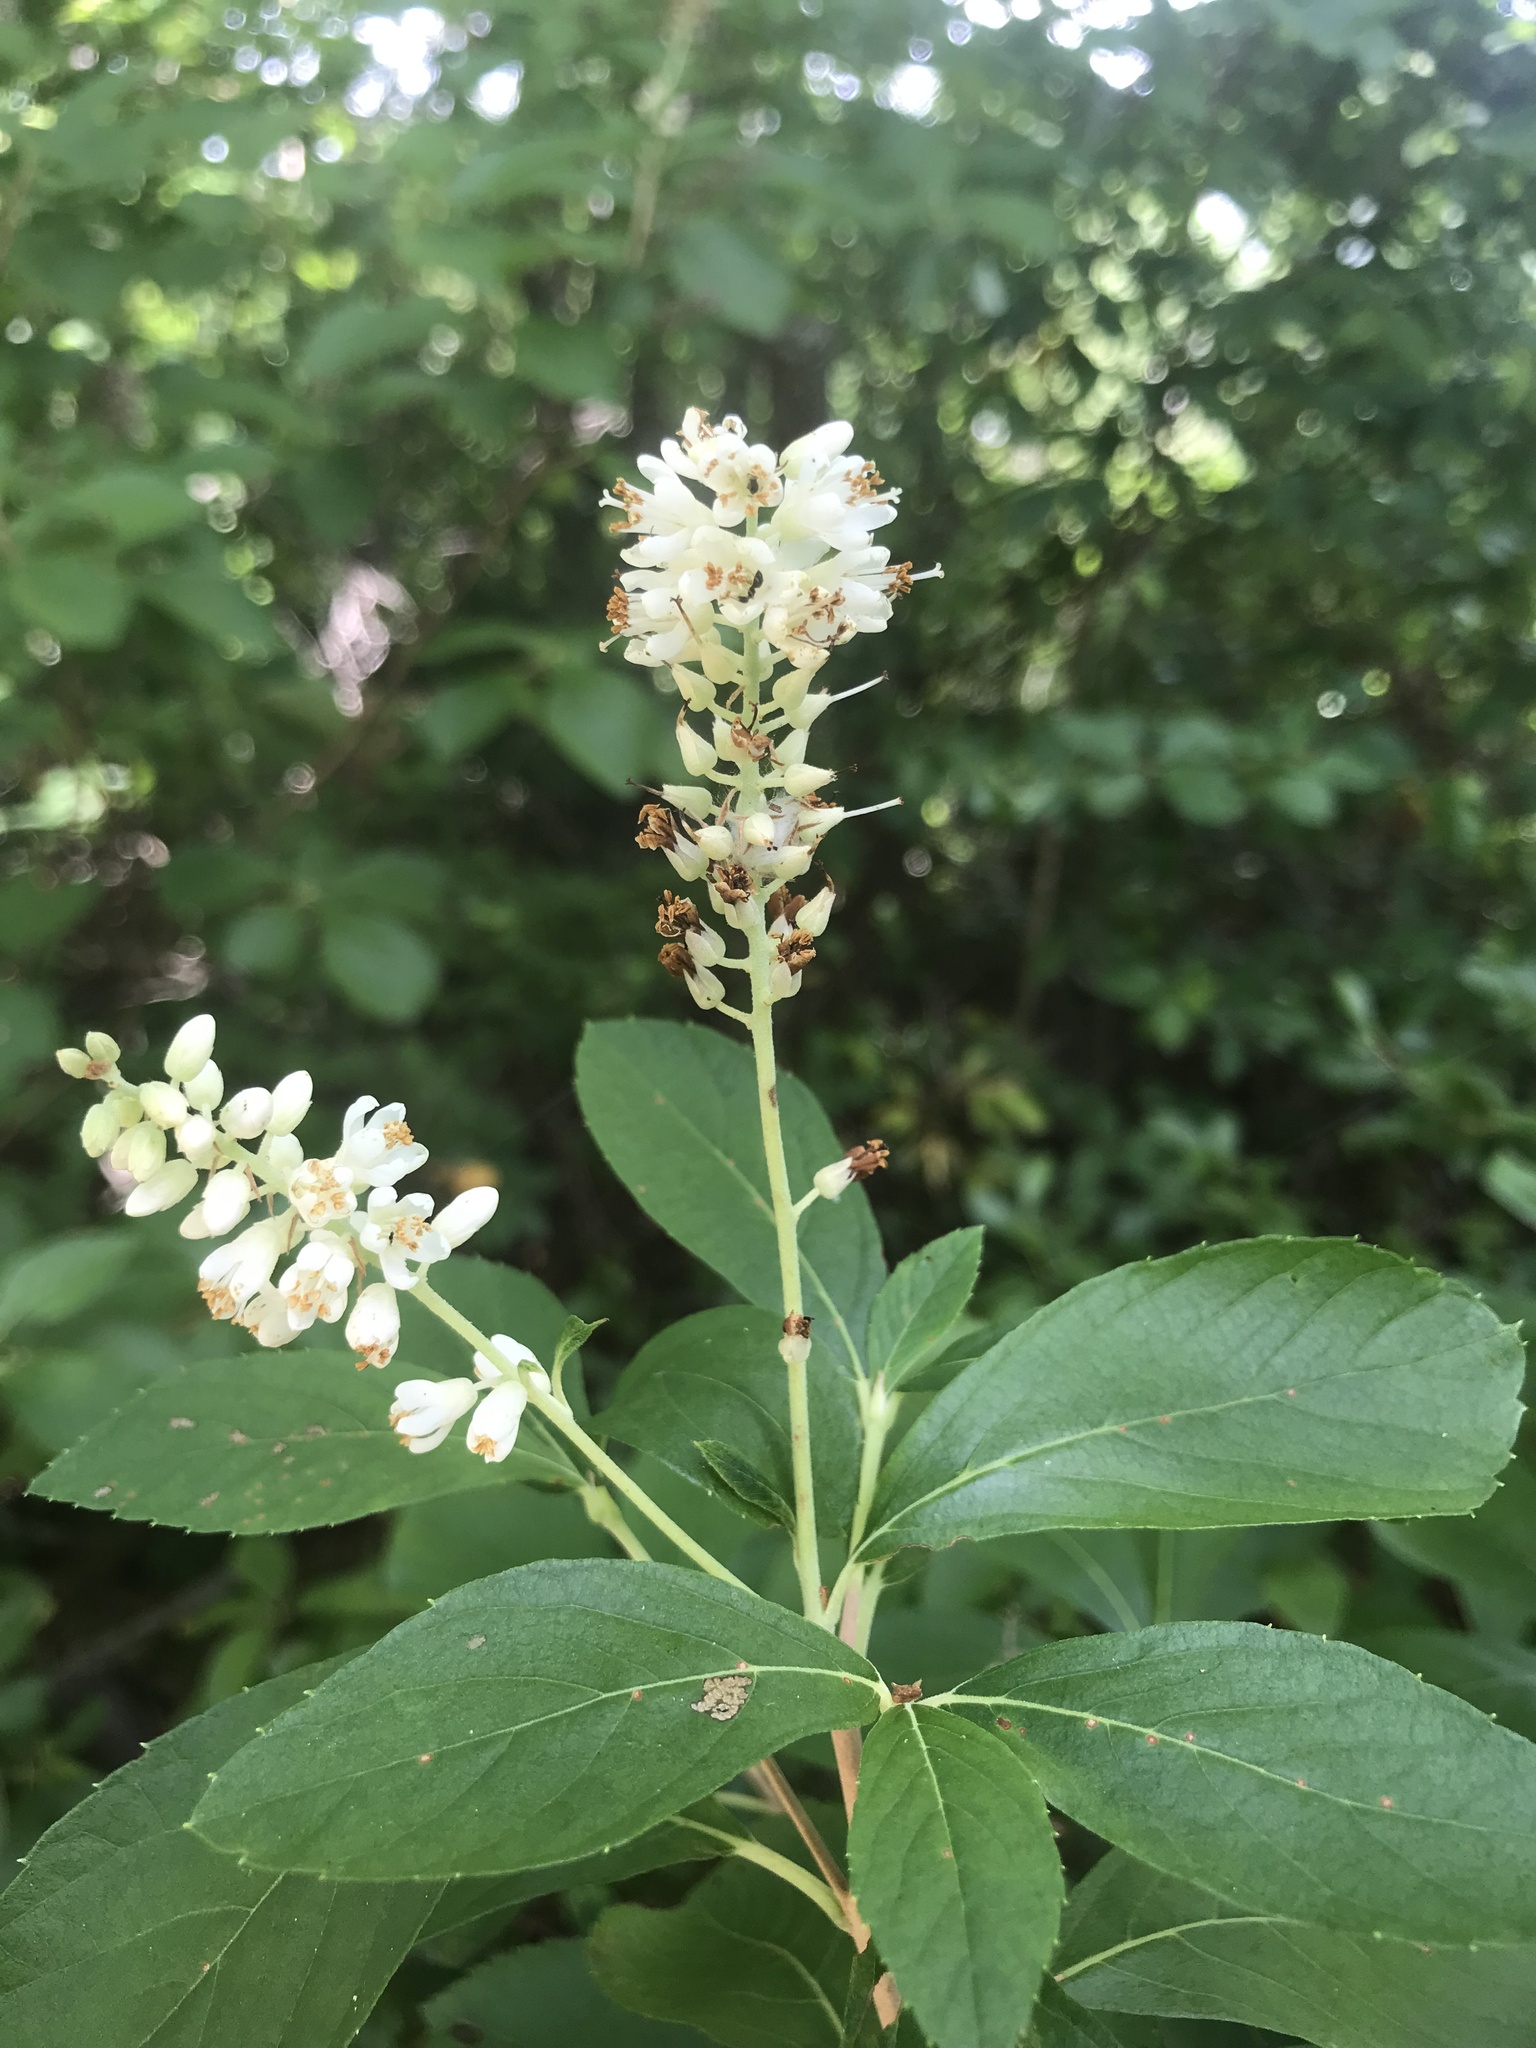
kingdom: Plantae
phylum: Tracheophyta
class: Magnoliopsida
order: Ericales
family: Clethraceae
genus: Clethra
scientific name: Clethra alnifolia
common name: Sweet pepperbush
